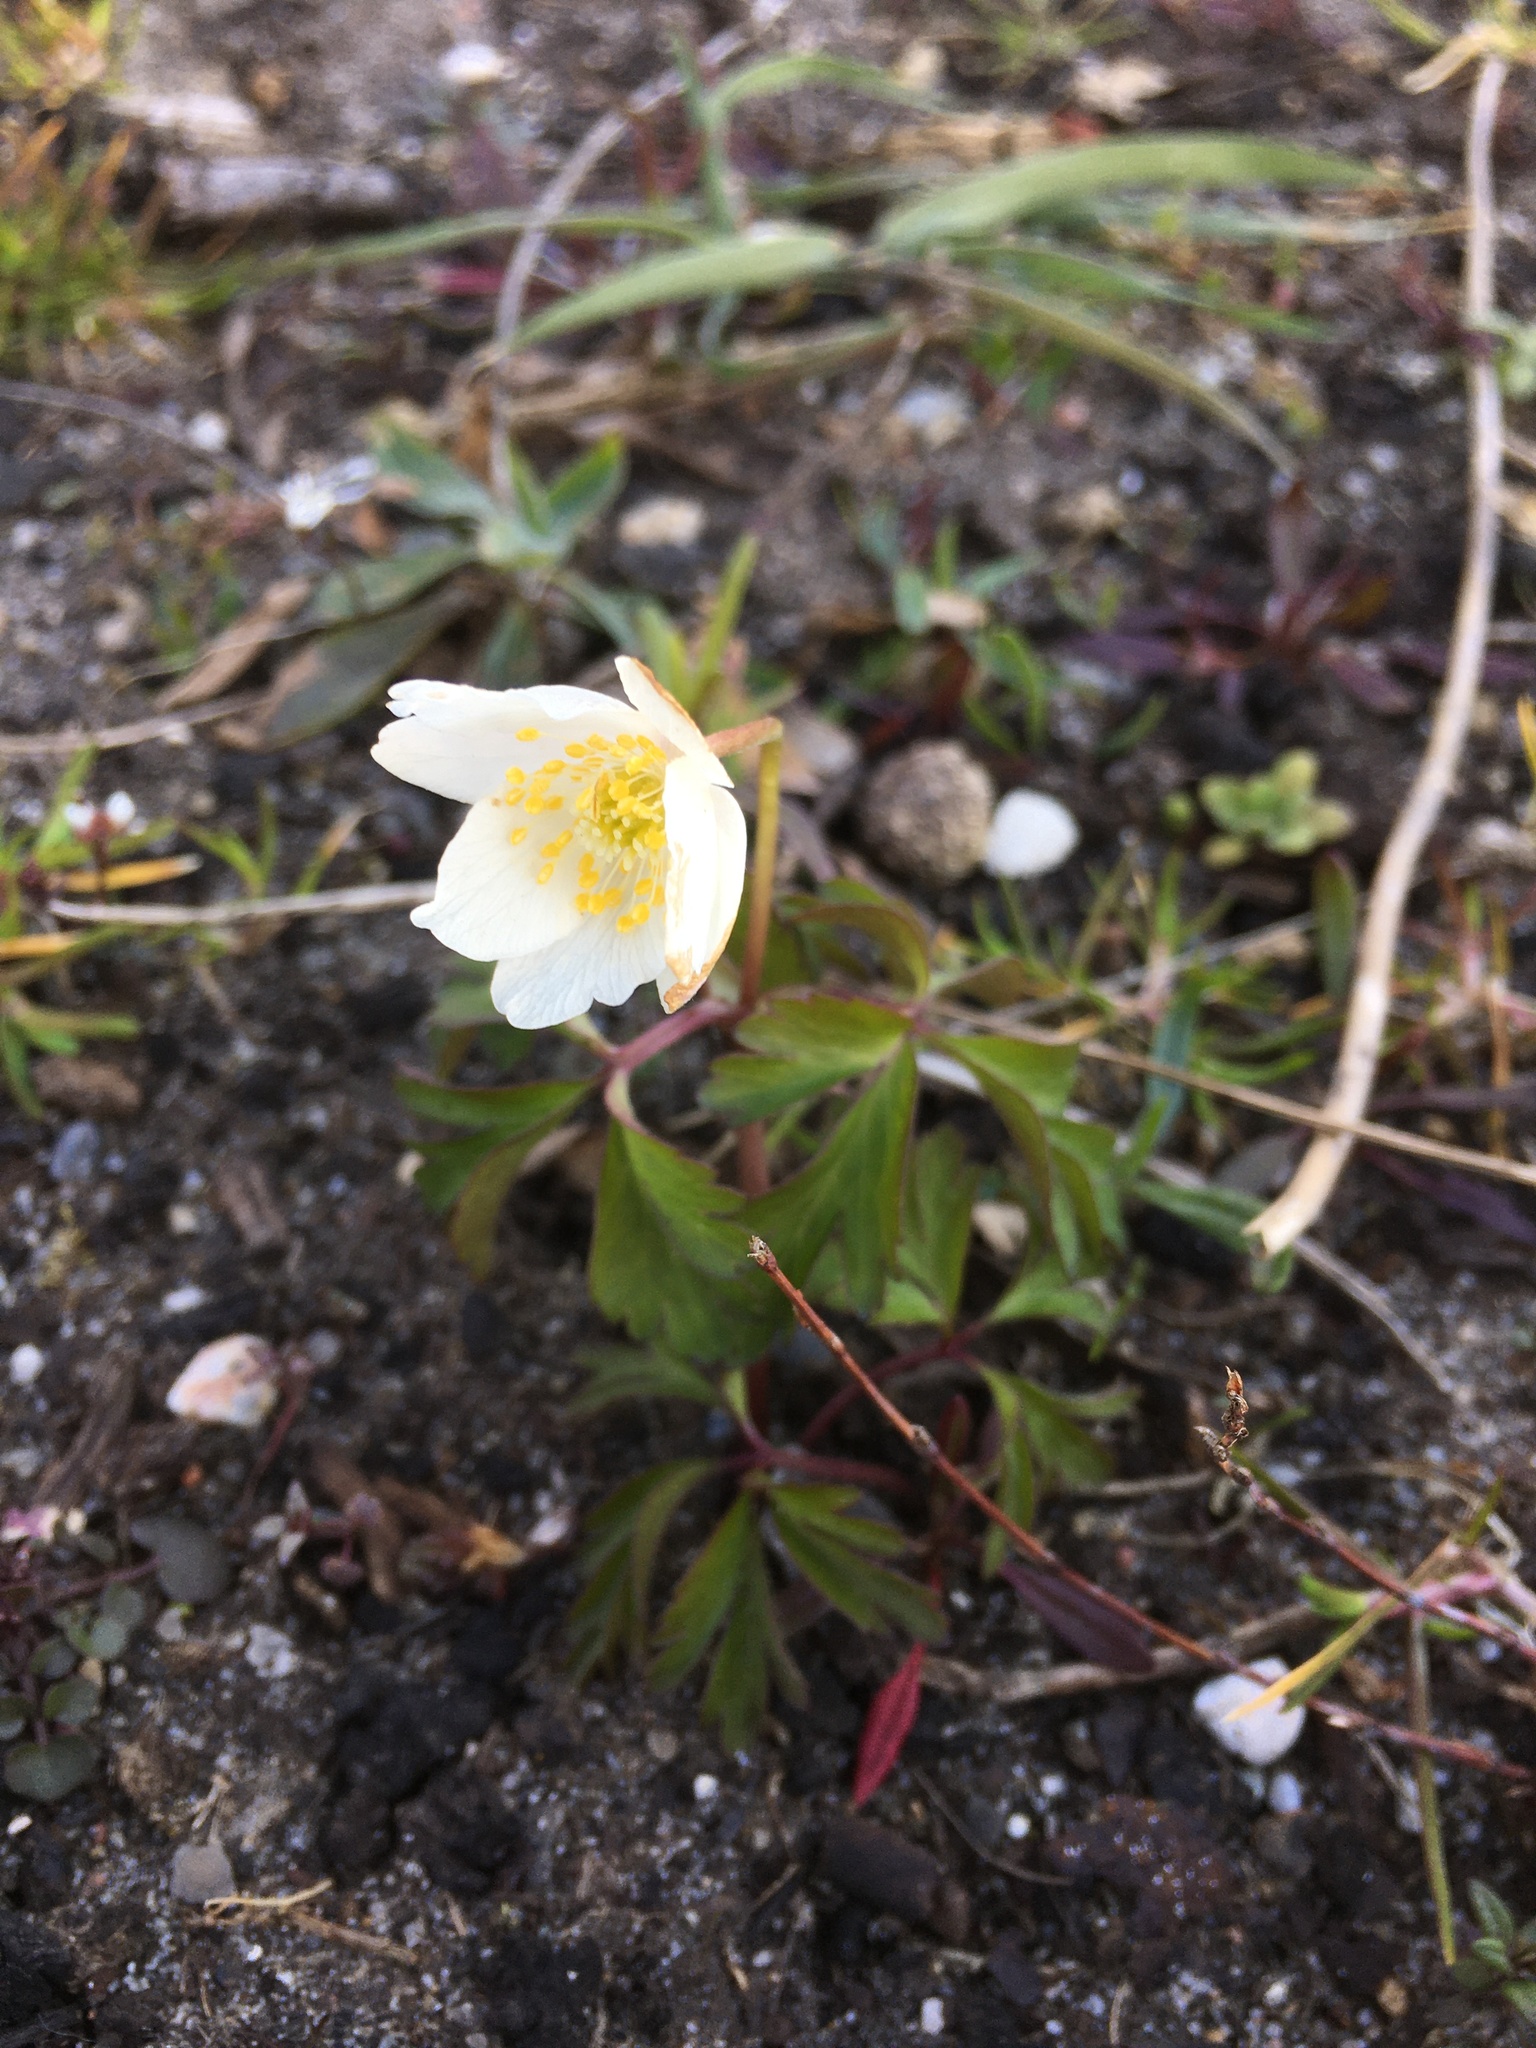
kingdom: Plantae
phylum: Tracheophyta
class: Magnoliopsida
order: Ranunculales
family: Ranunculaceae
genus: Anemone
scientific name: Anemone nemorosa
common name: Wood anemone
